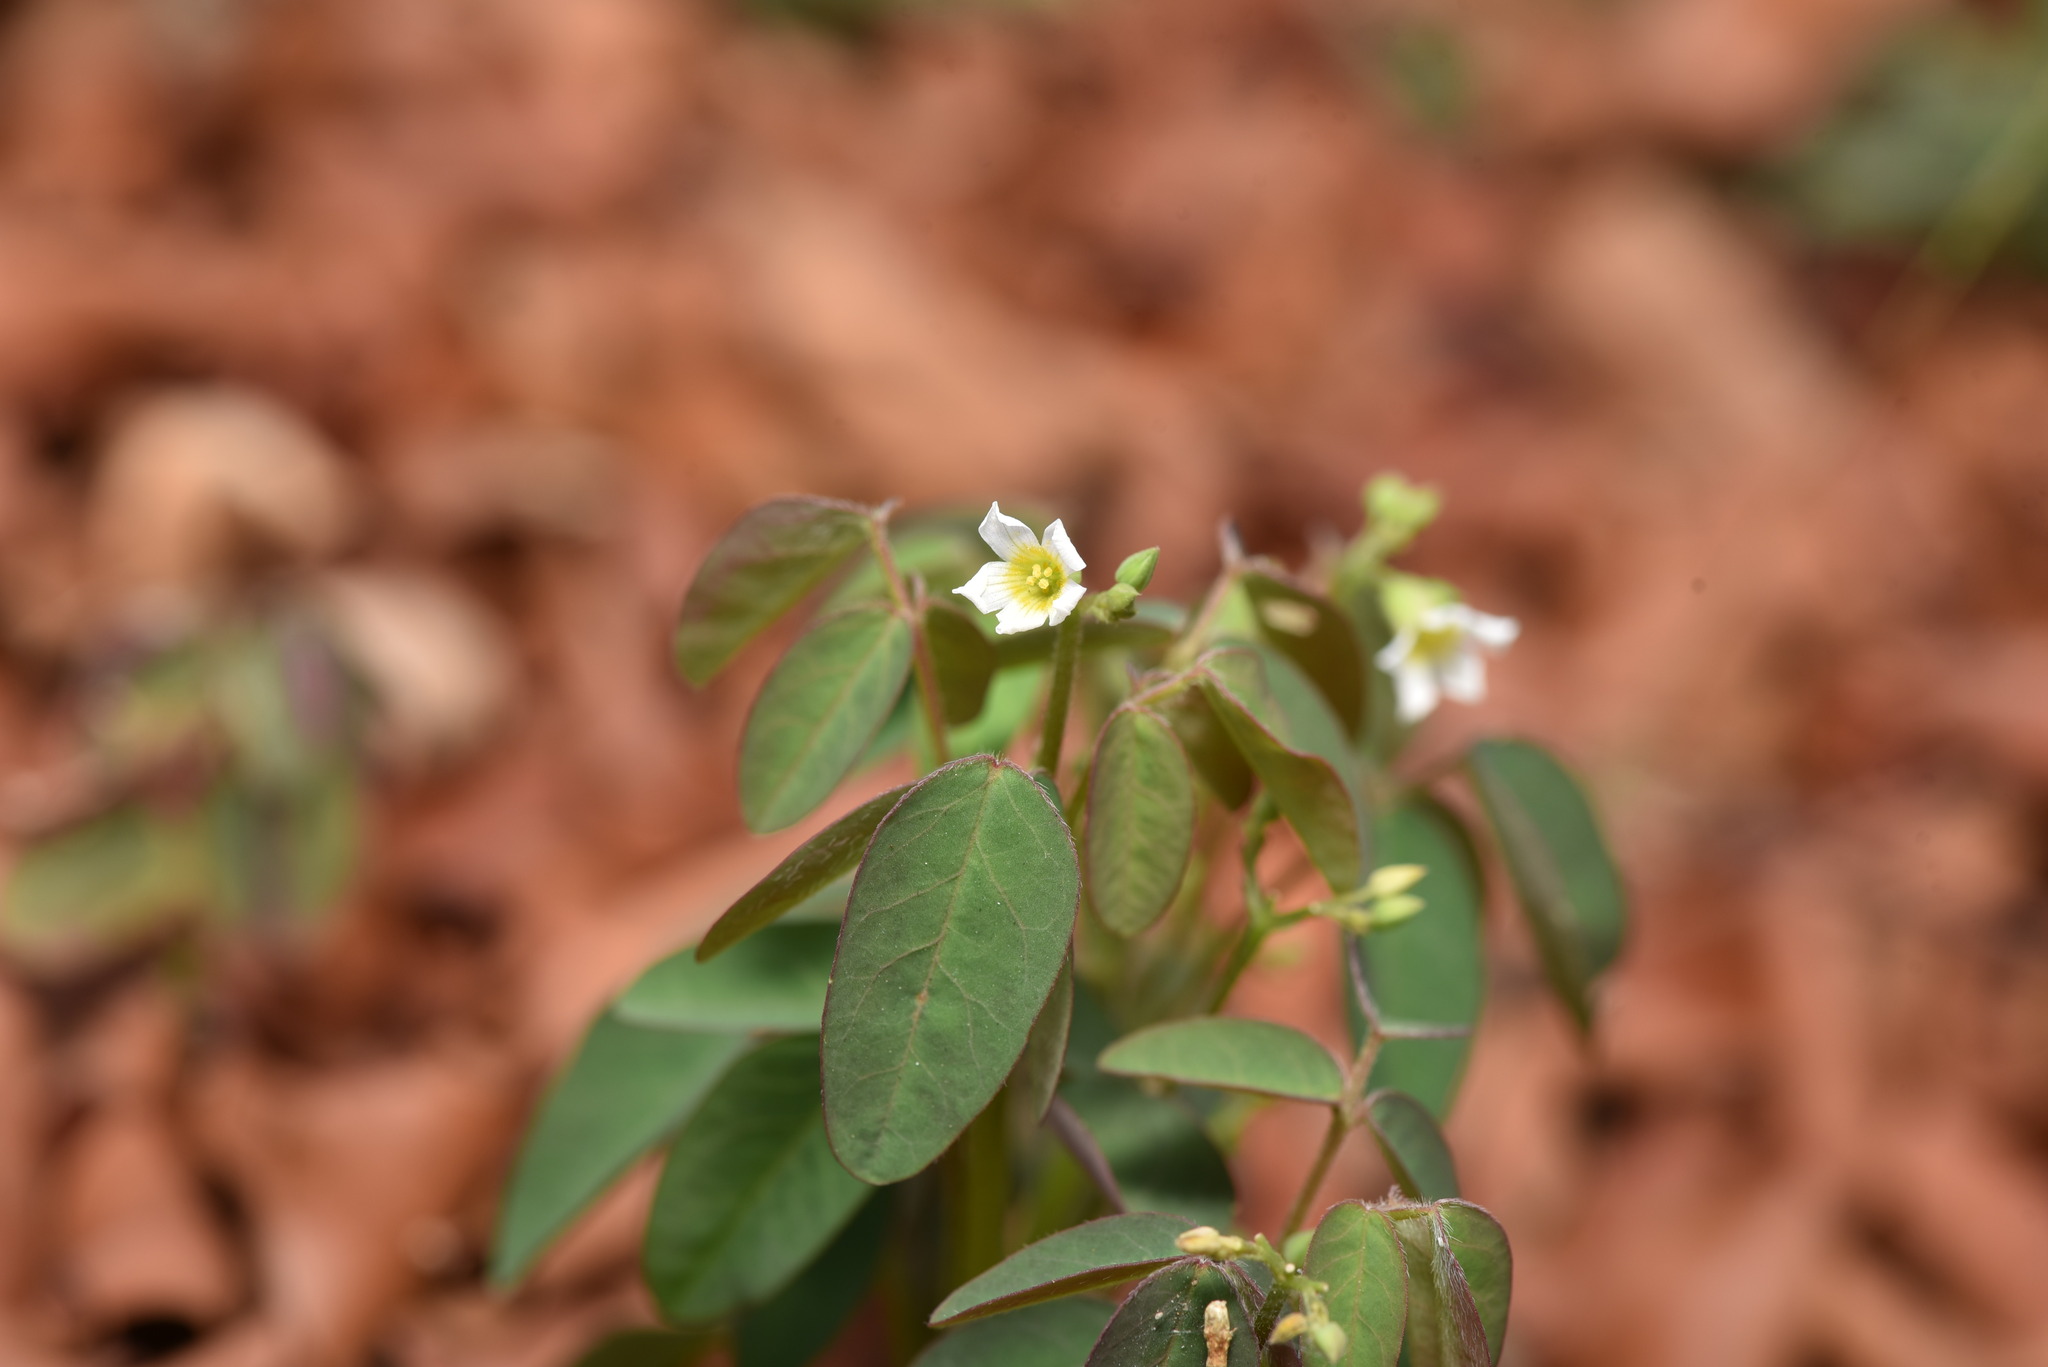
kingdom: Plantae
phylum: Tracheophyta
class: Magnoliopsida
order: Oxalidales
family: Oxalidaceae
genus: Oxalis
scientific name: Oxalis barrelieri
